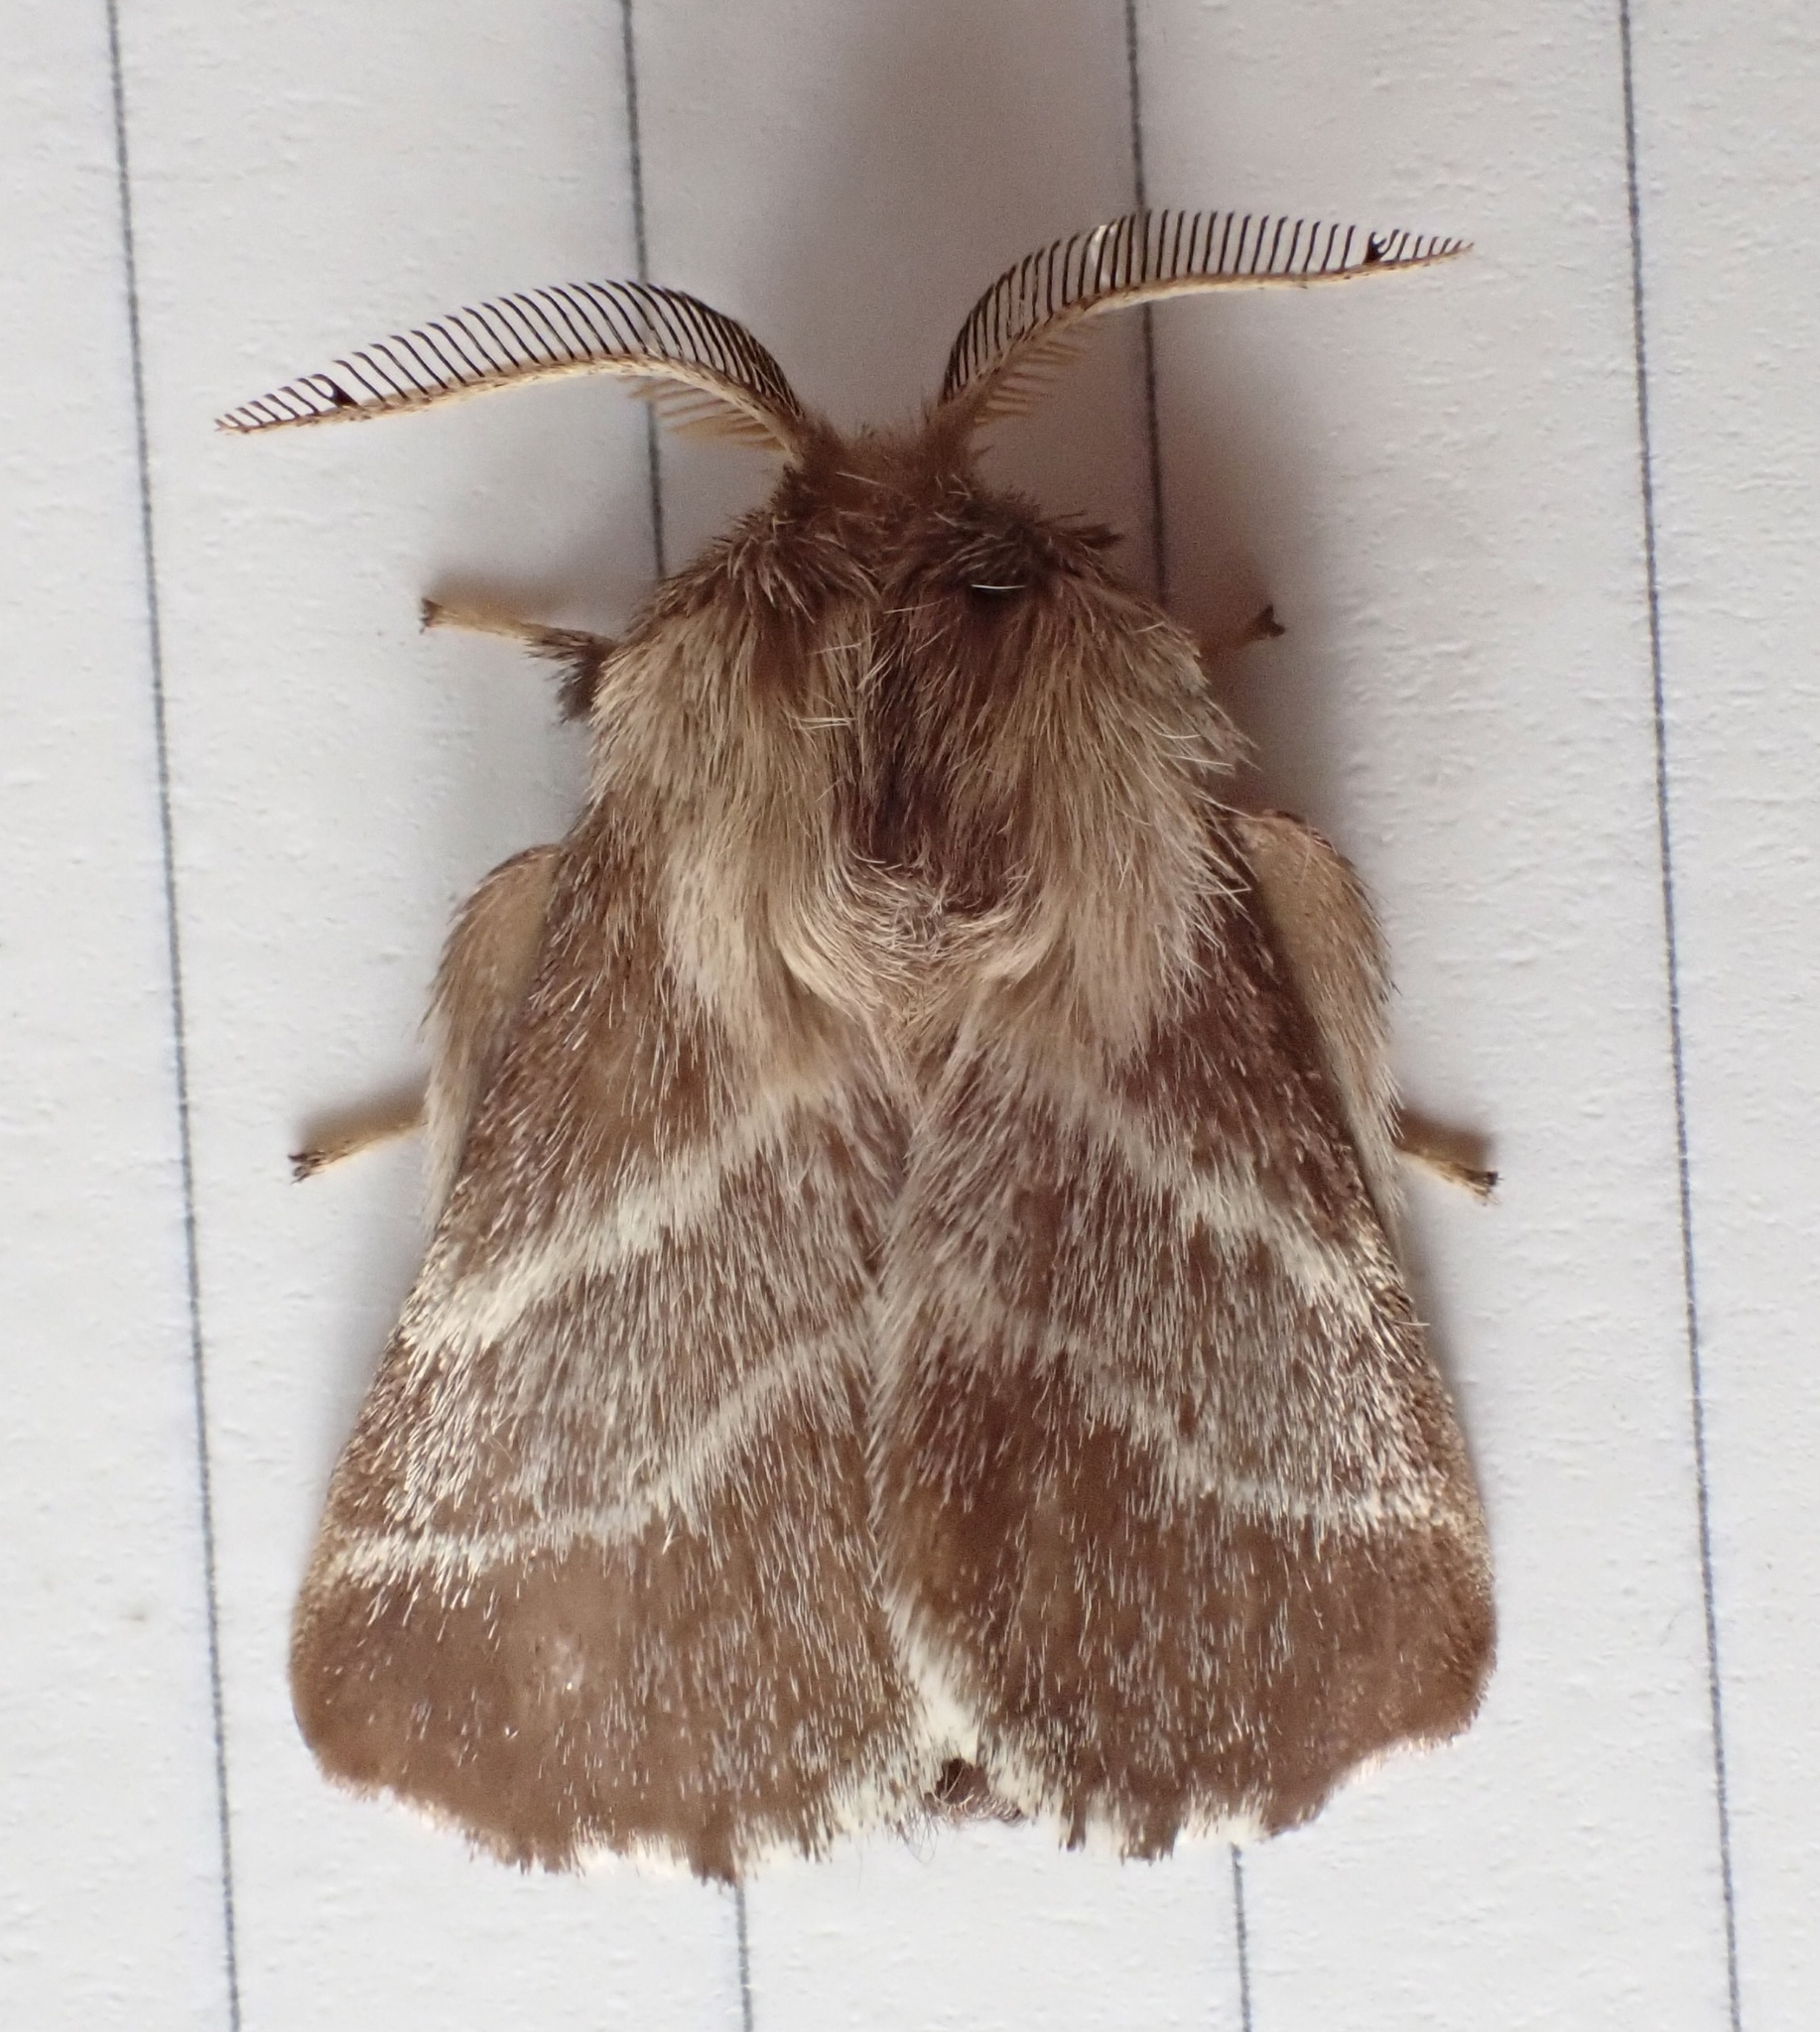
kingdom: Animalia
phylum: Arthropoda
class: Insecta
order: Lepidoptera
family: Lasiocampidae
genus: Malacosoma
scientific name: Malacosoma americana
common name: Eastern tent caterpillar moth
